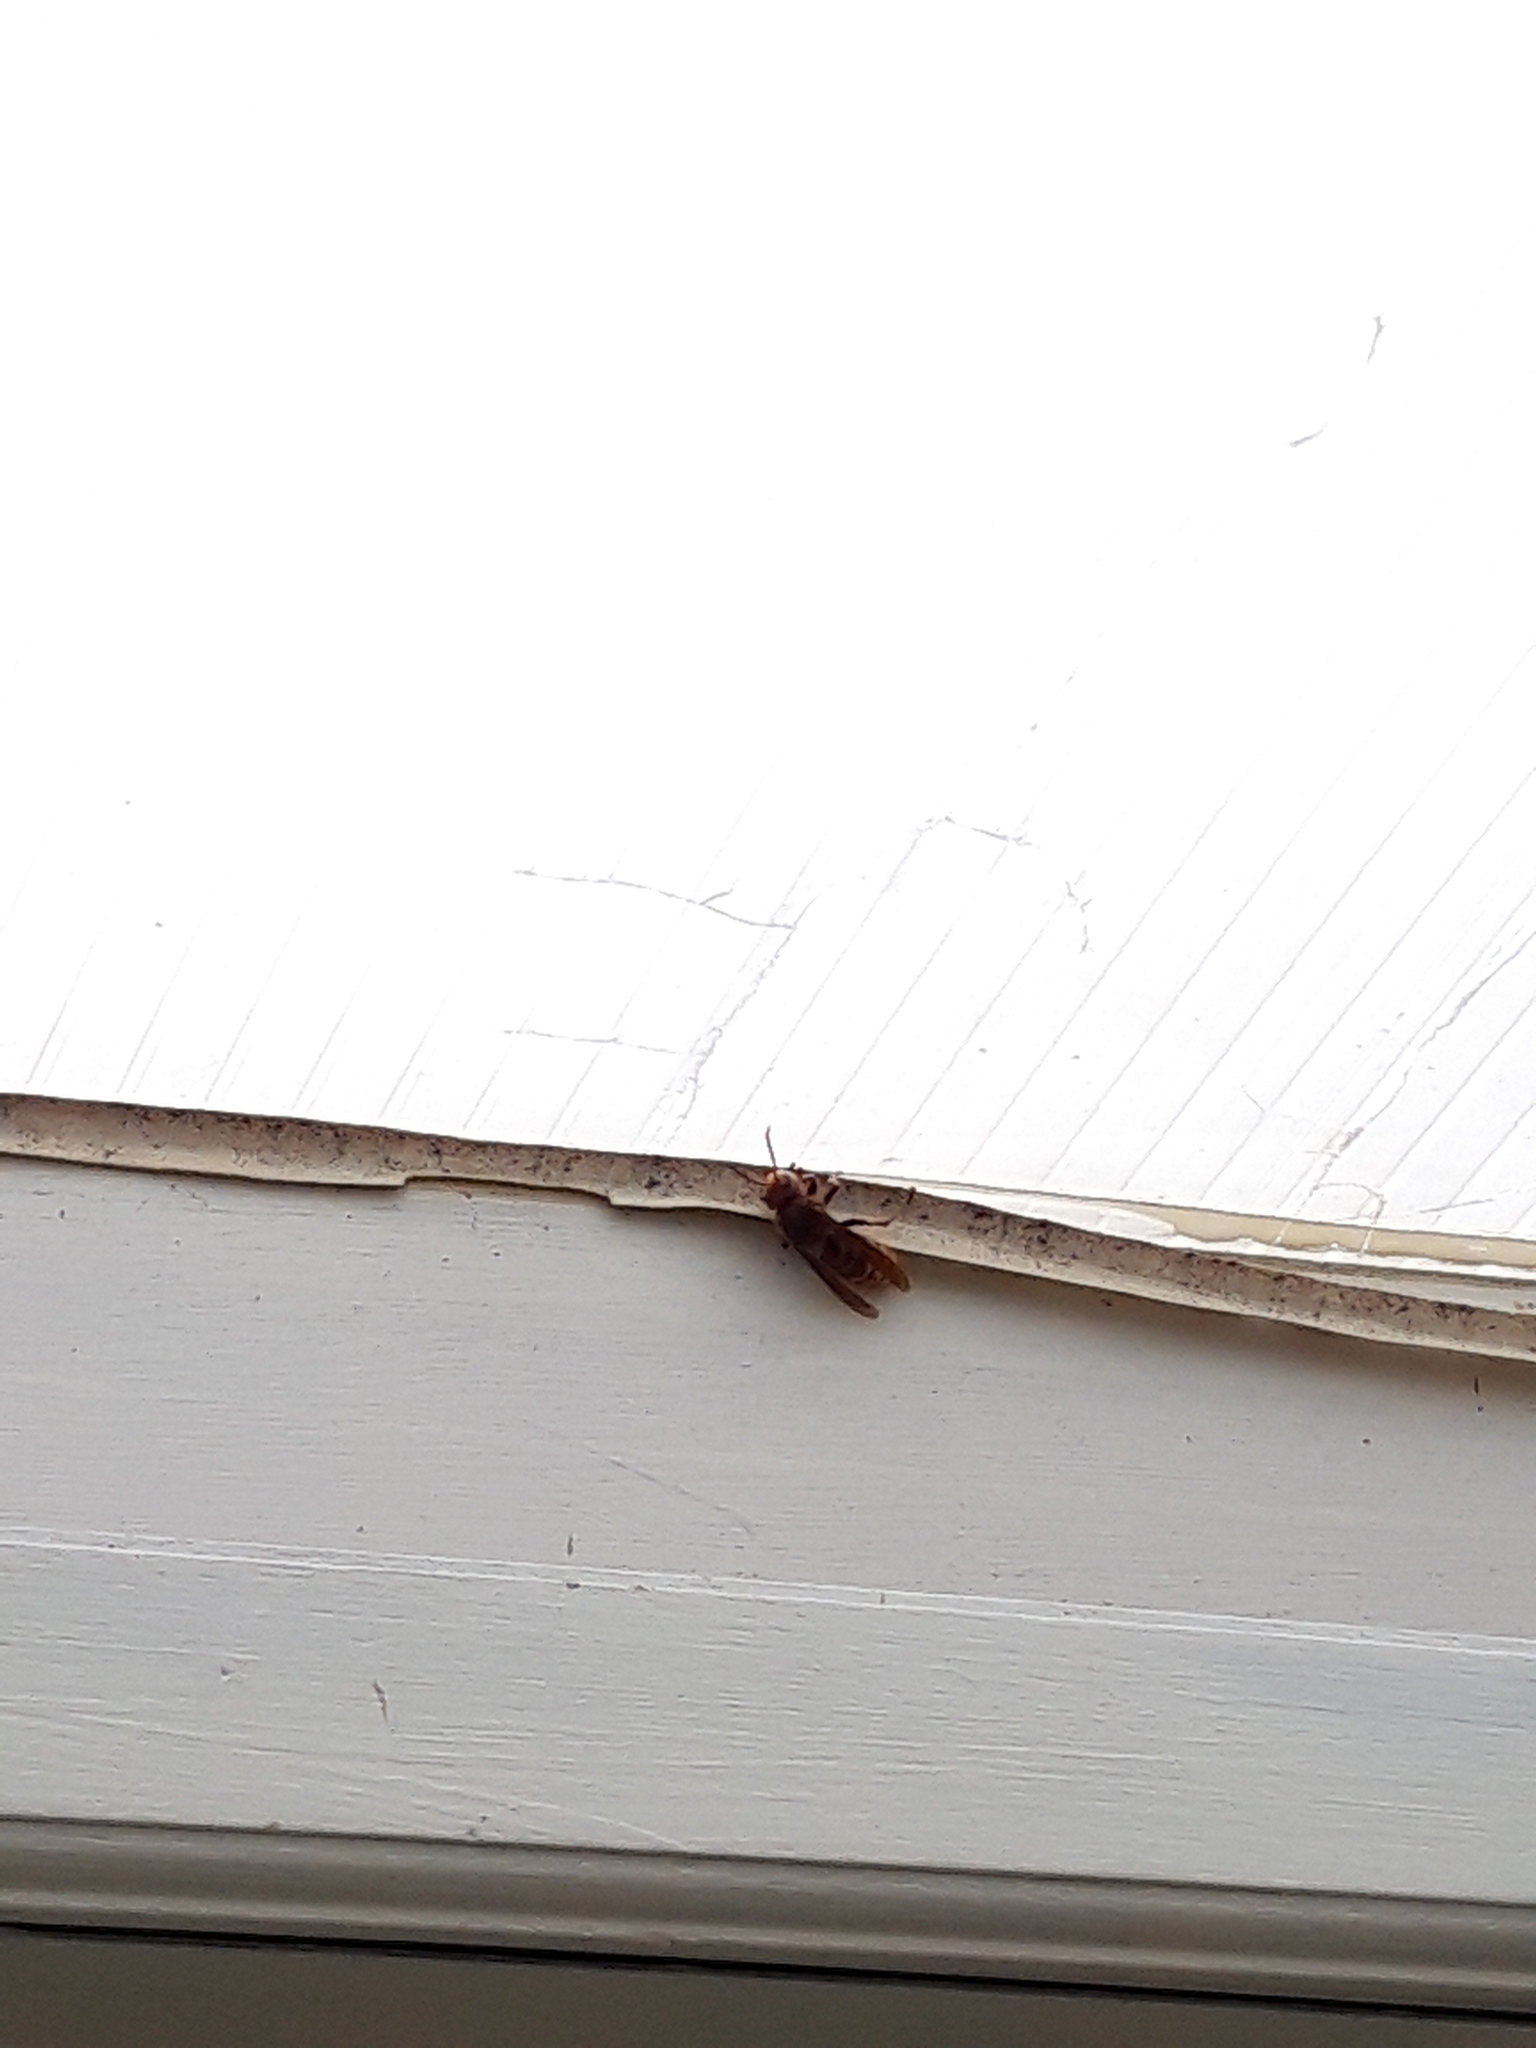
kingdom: Animalia
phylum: Arthropoda
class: Insecta
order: Hymenoptera
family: Vespidae
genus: Vespa
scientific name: Vespa crabro
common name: Hornet
